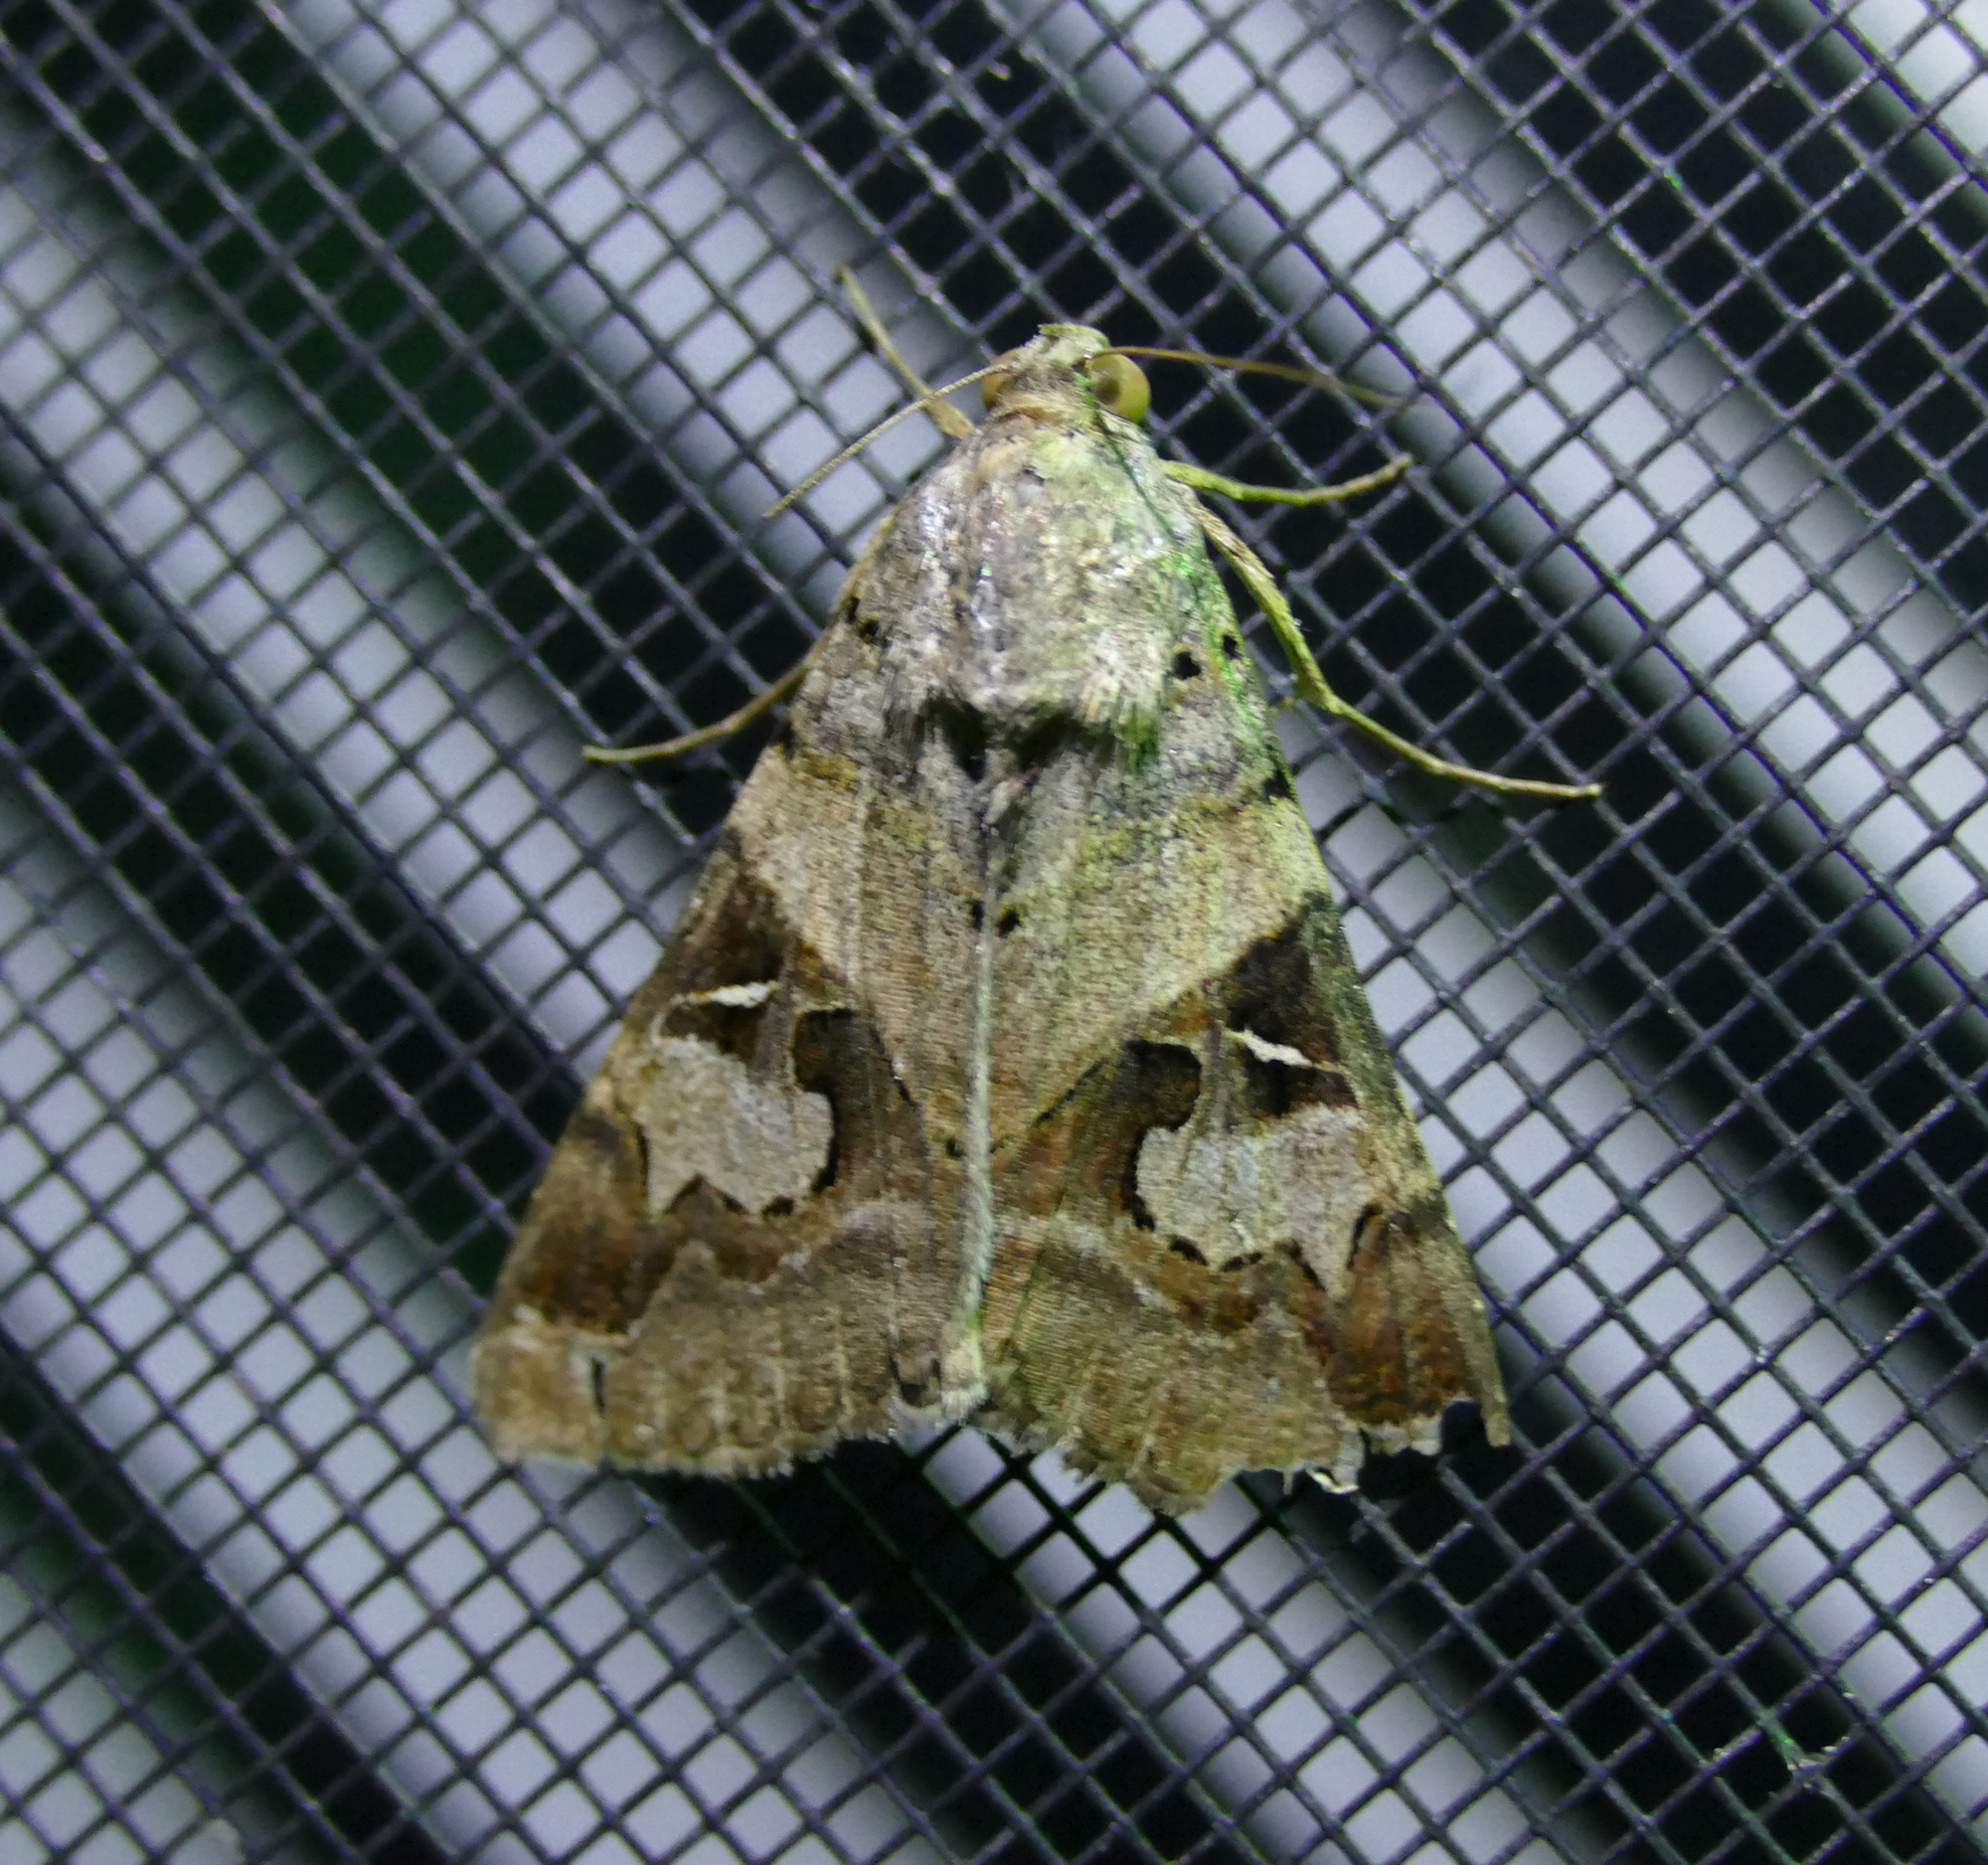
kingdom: Animalia
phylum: Arthropoda
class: Insecta
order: Lepidoptera
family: Erebidae
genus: Melipotis
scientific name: Melipotis indomita
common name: Moth
